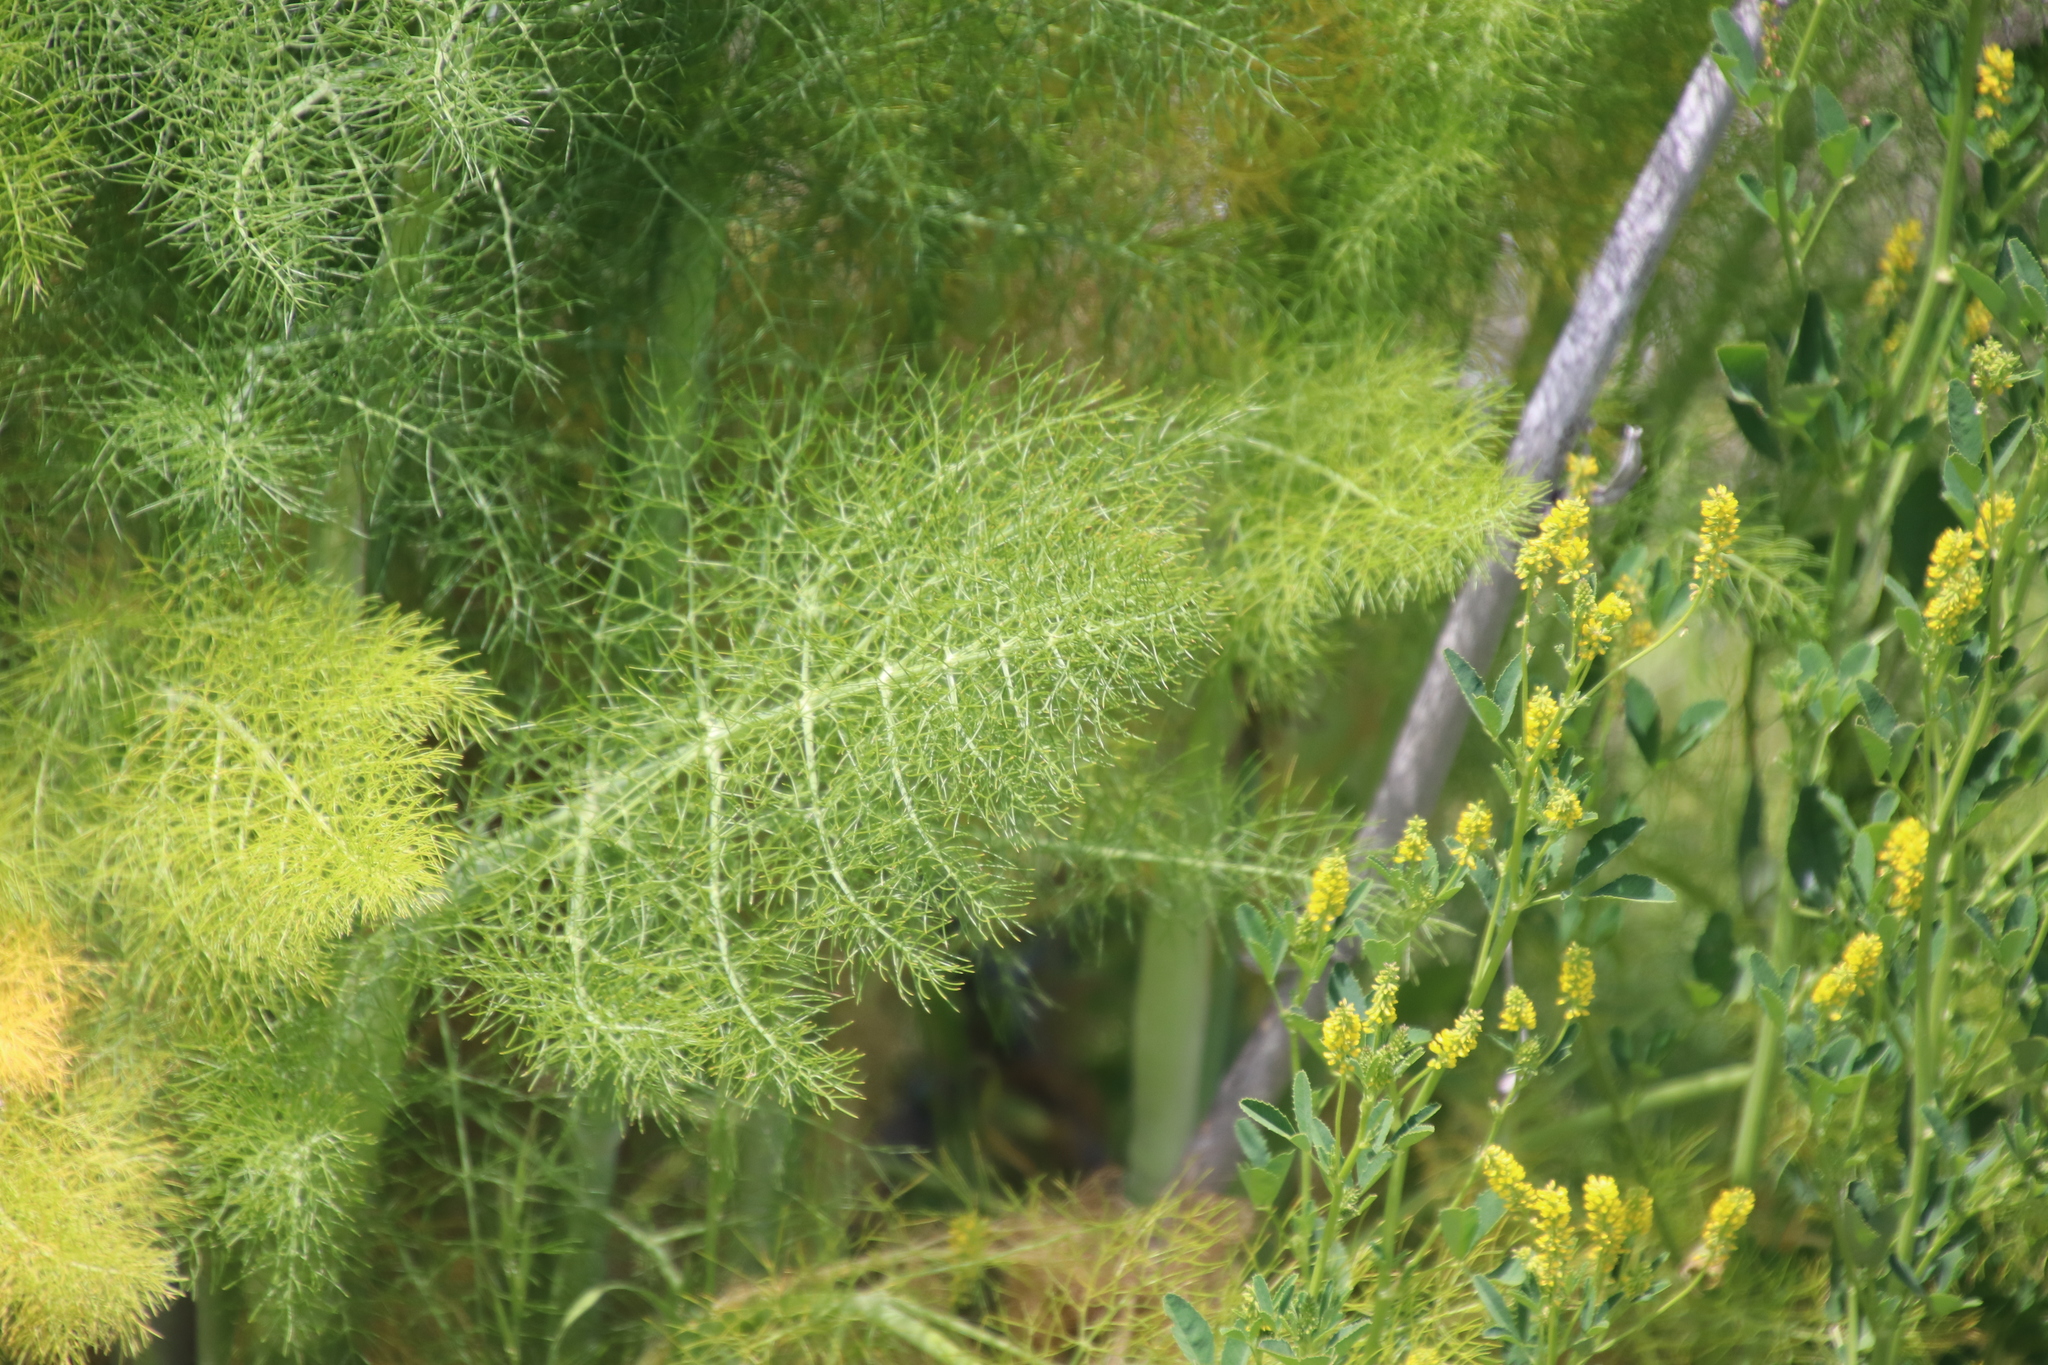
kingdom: Plantae
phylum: Tracheophyta
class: Magnoliopsida
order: Apiales
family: Apiaceae
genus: Foeniculum
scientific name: Foeniculum vulgare
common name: Fennel
